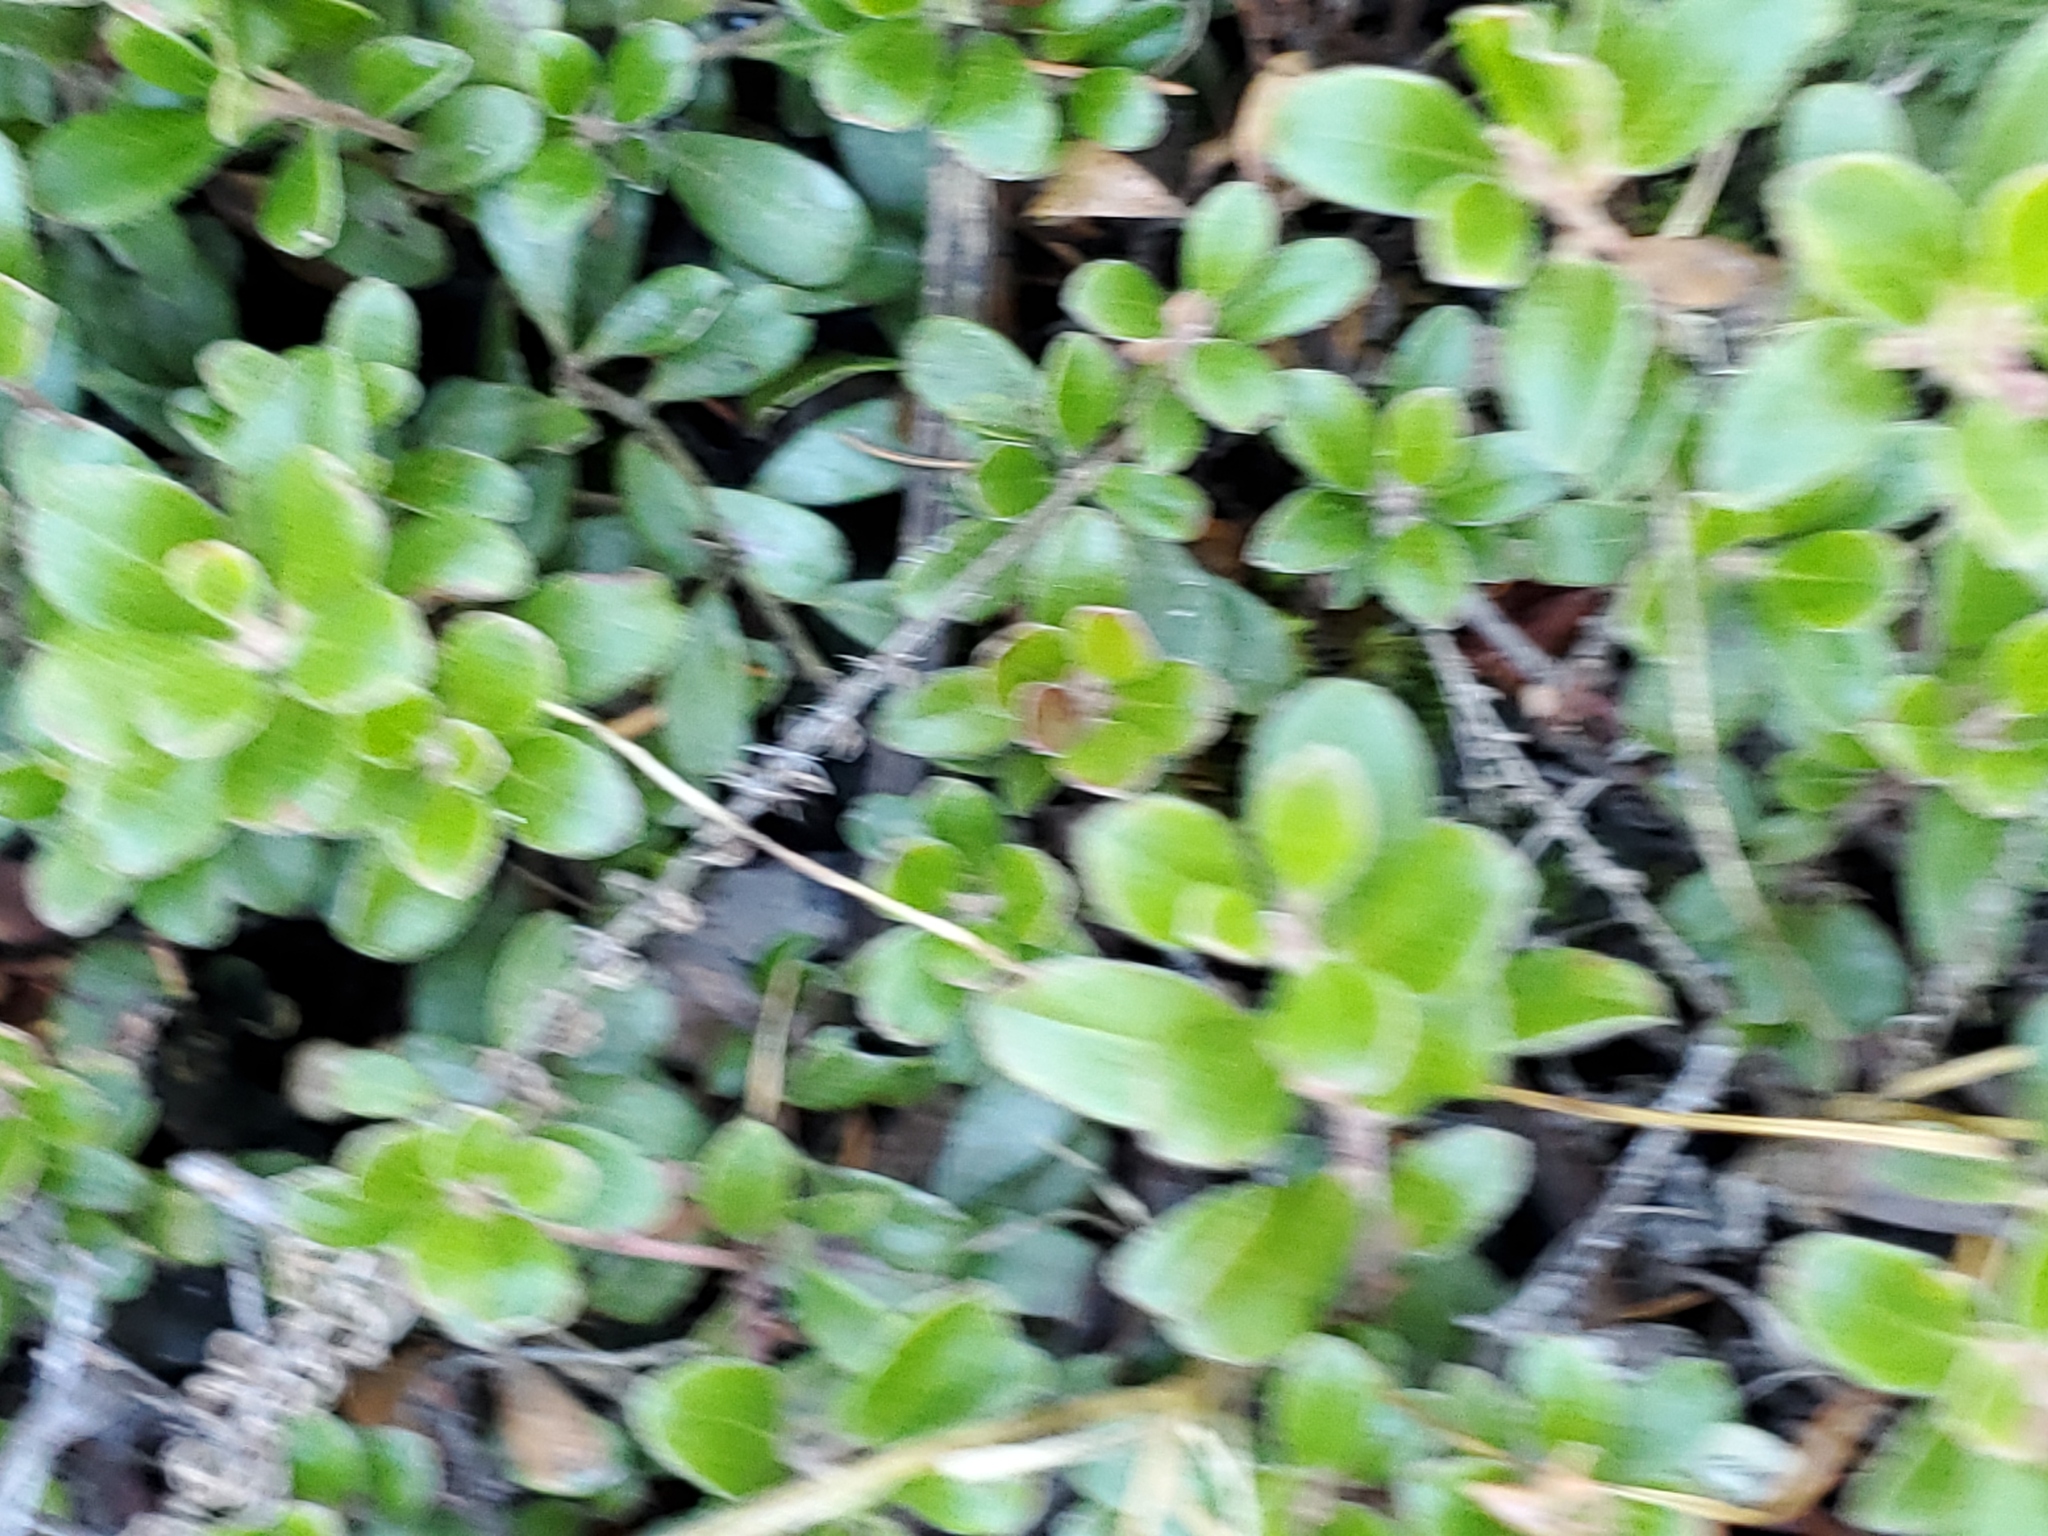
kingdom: Plantae
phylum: Tracheophyta
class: Magnoliopsida
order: Ericales
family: Ericaceae
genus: Arctostaphylos
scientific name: Arctostaphylos uva-ursi
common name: Bearberry
